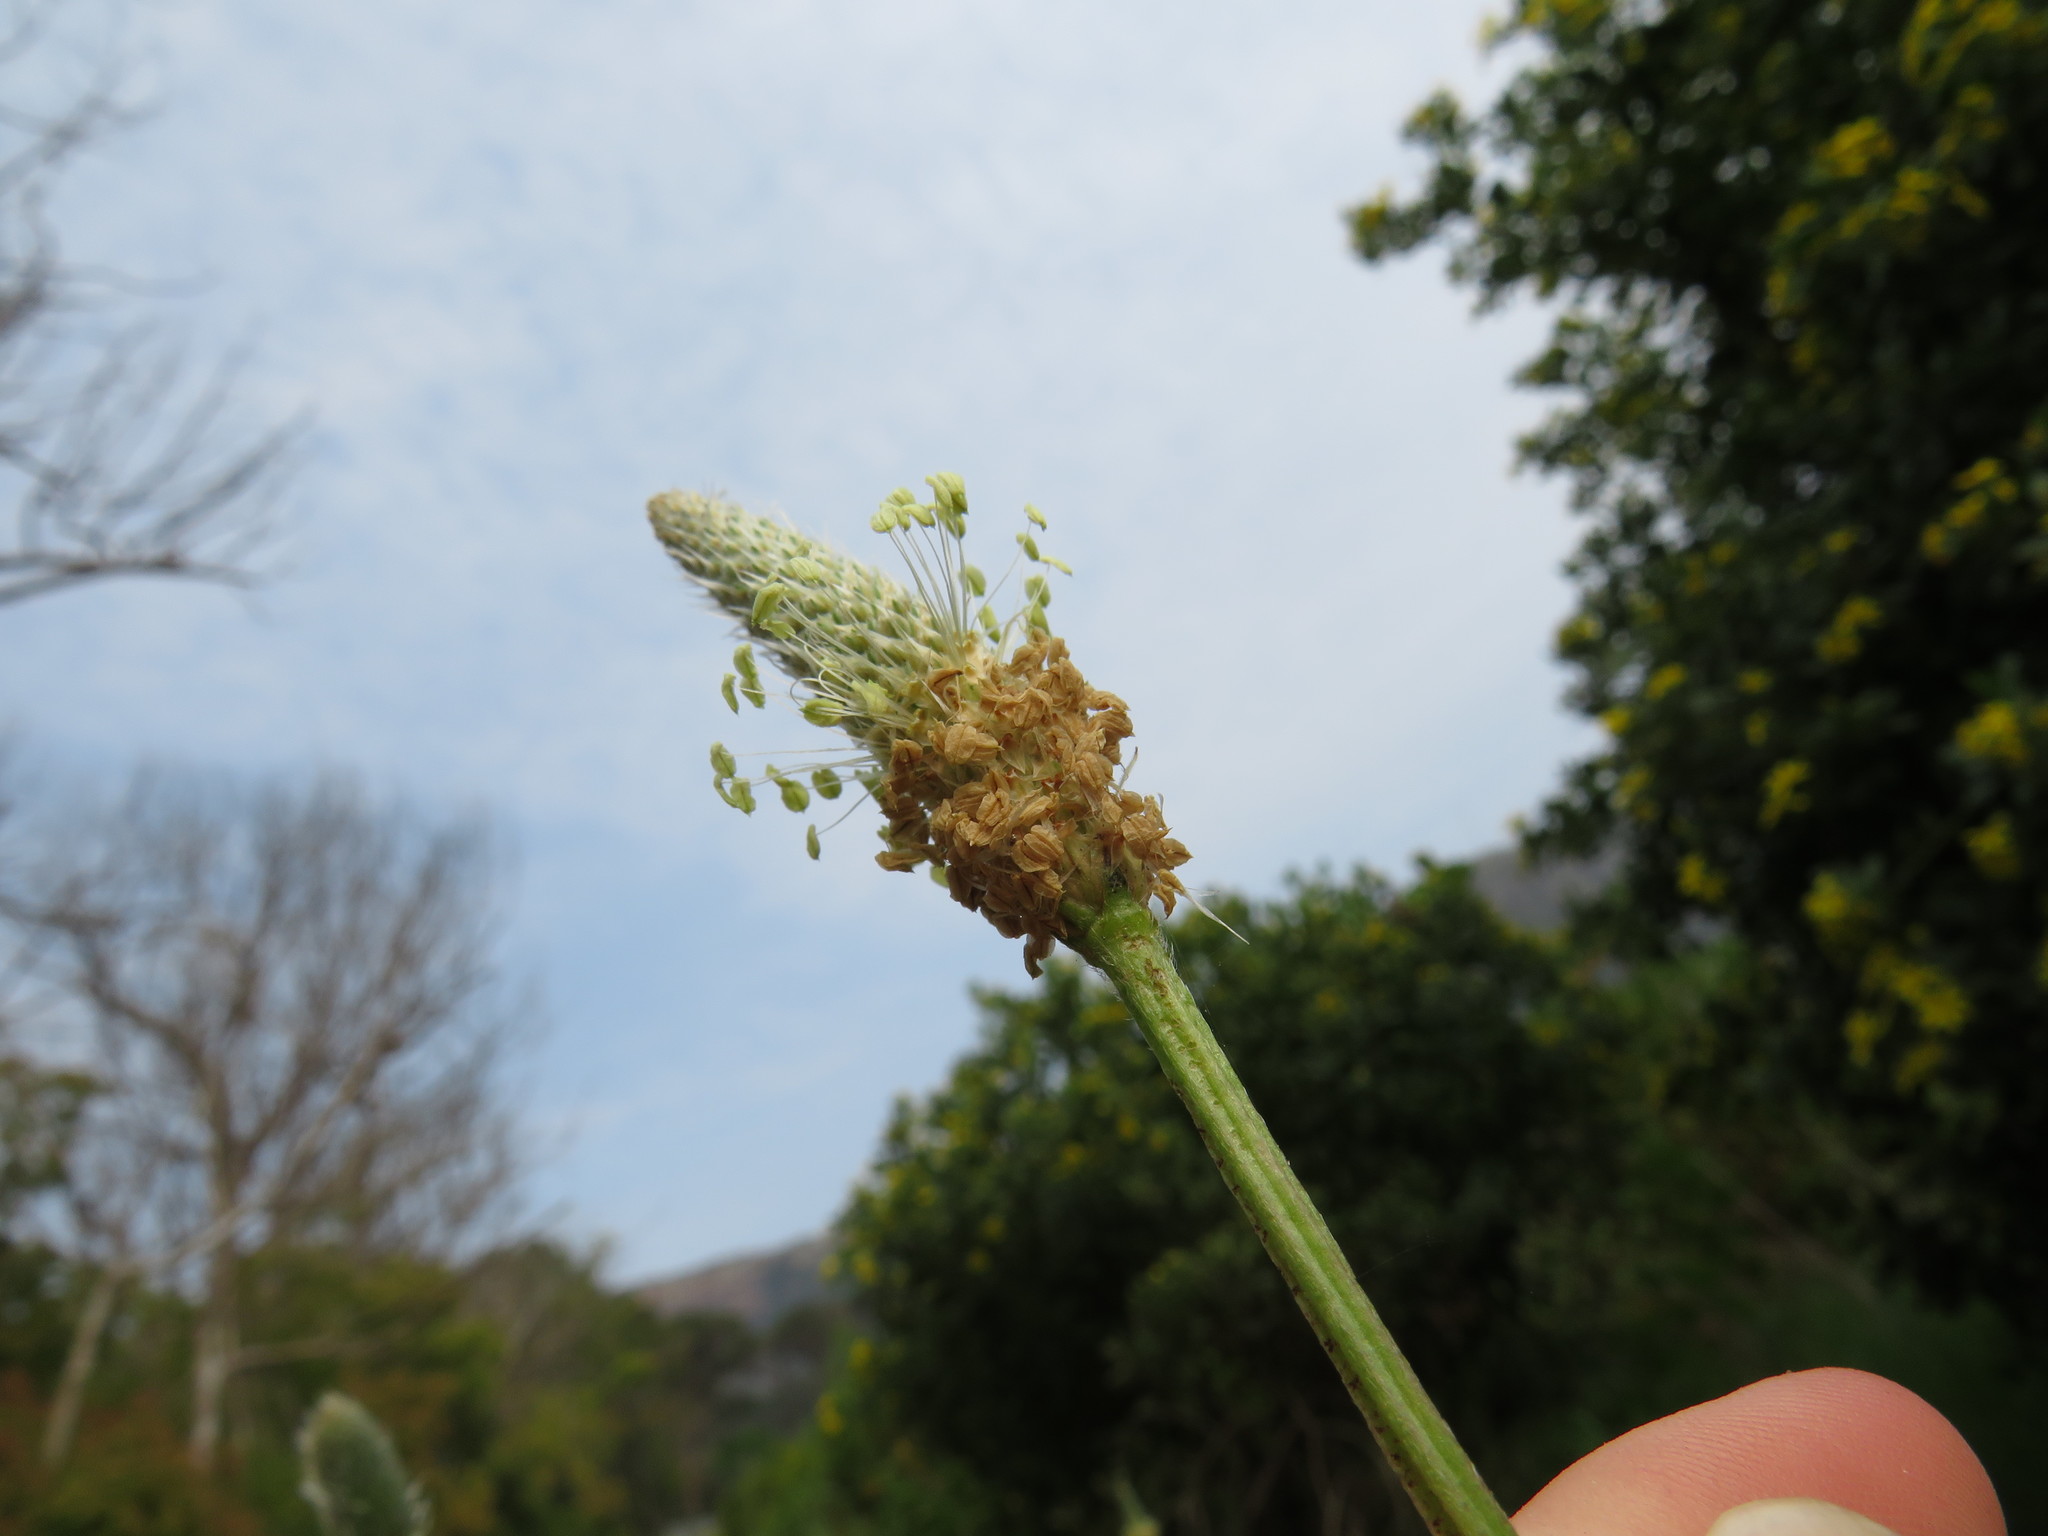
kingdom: Plantae
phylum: Tracheophyta
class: Magnoliopsida
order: Lamiales
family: Plantaginaceae
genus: Plantago
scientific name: Plantago lanceolata
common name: Ribwort plantain
